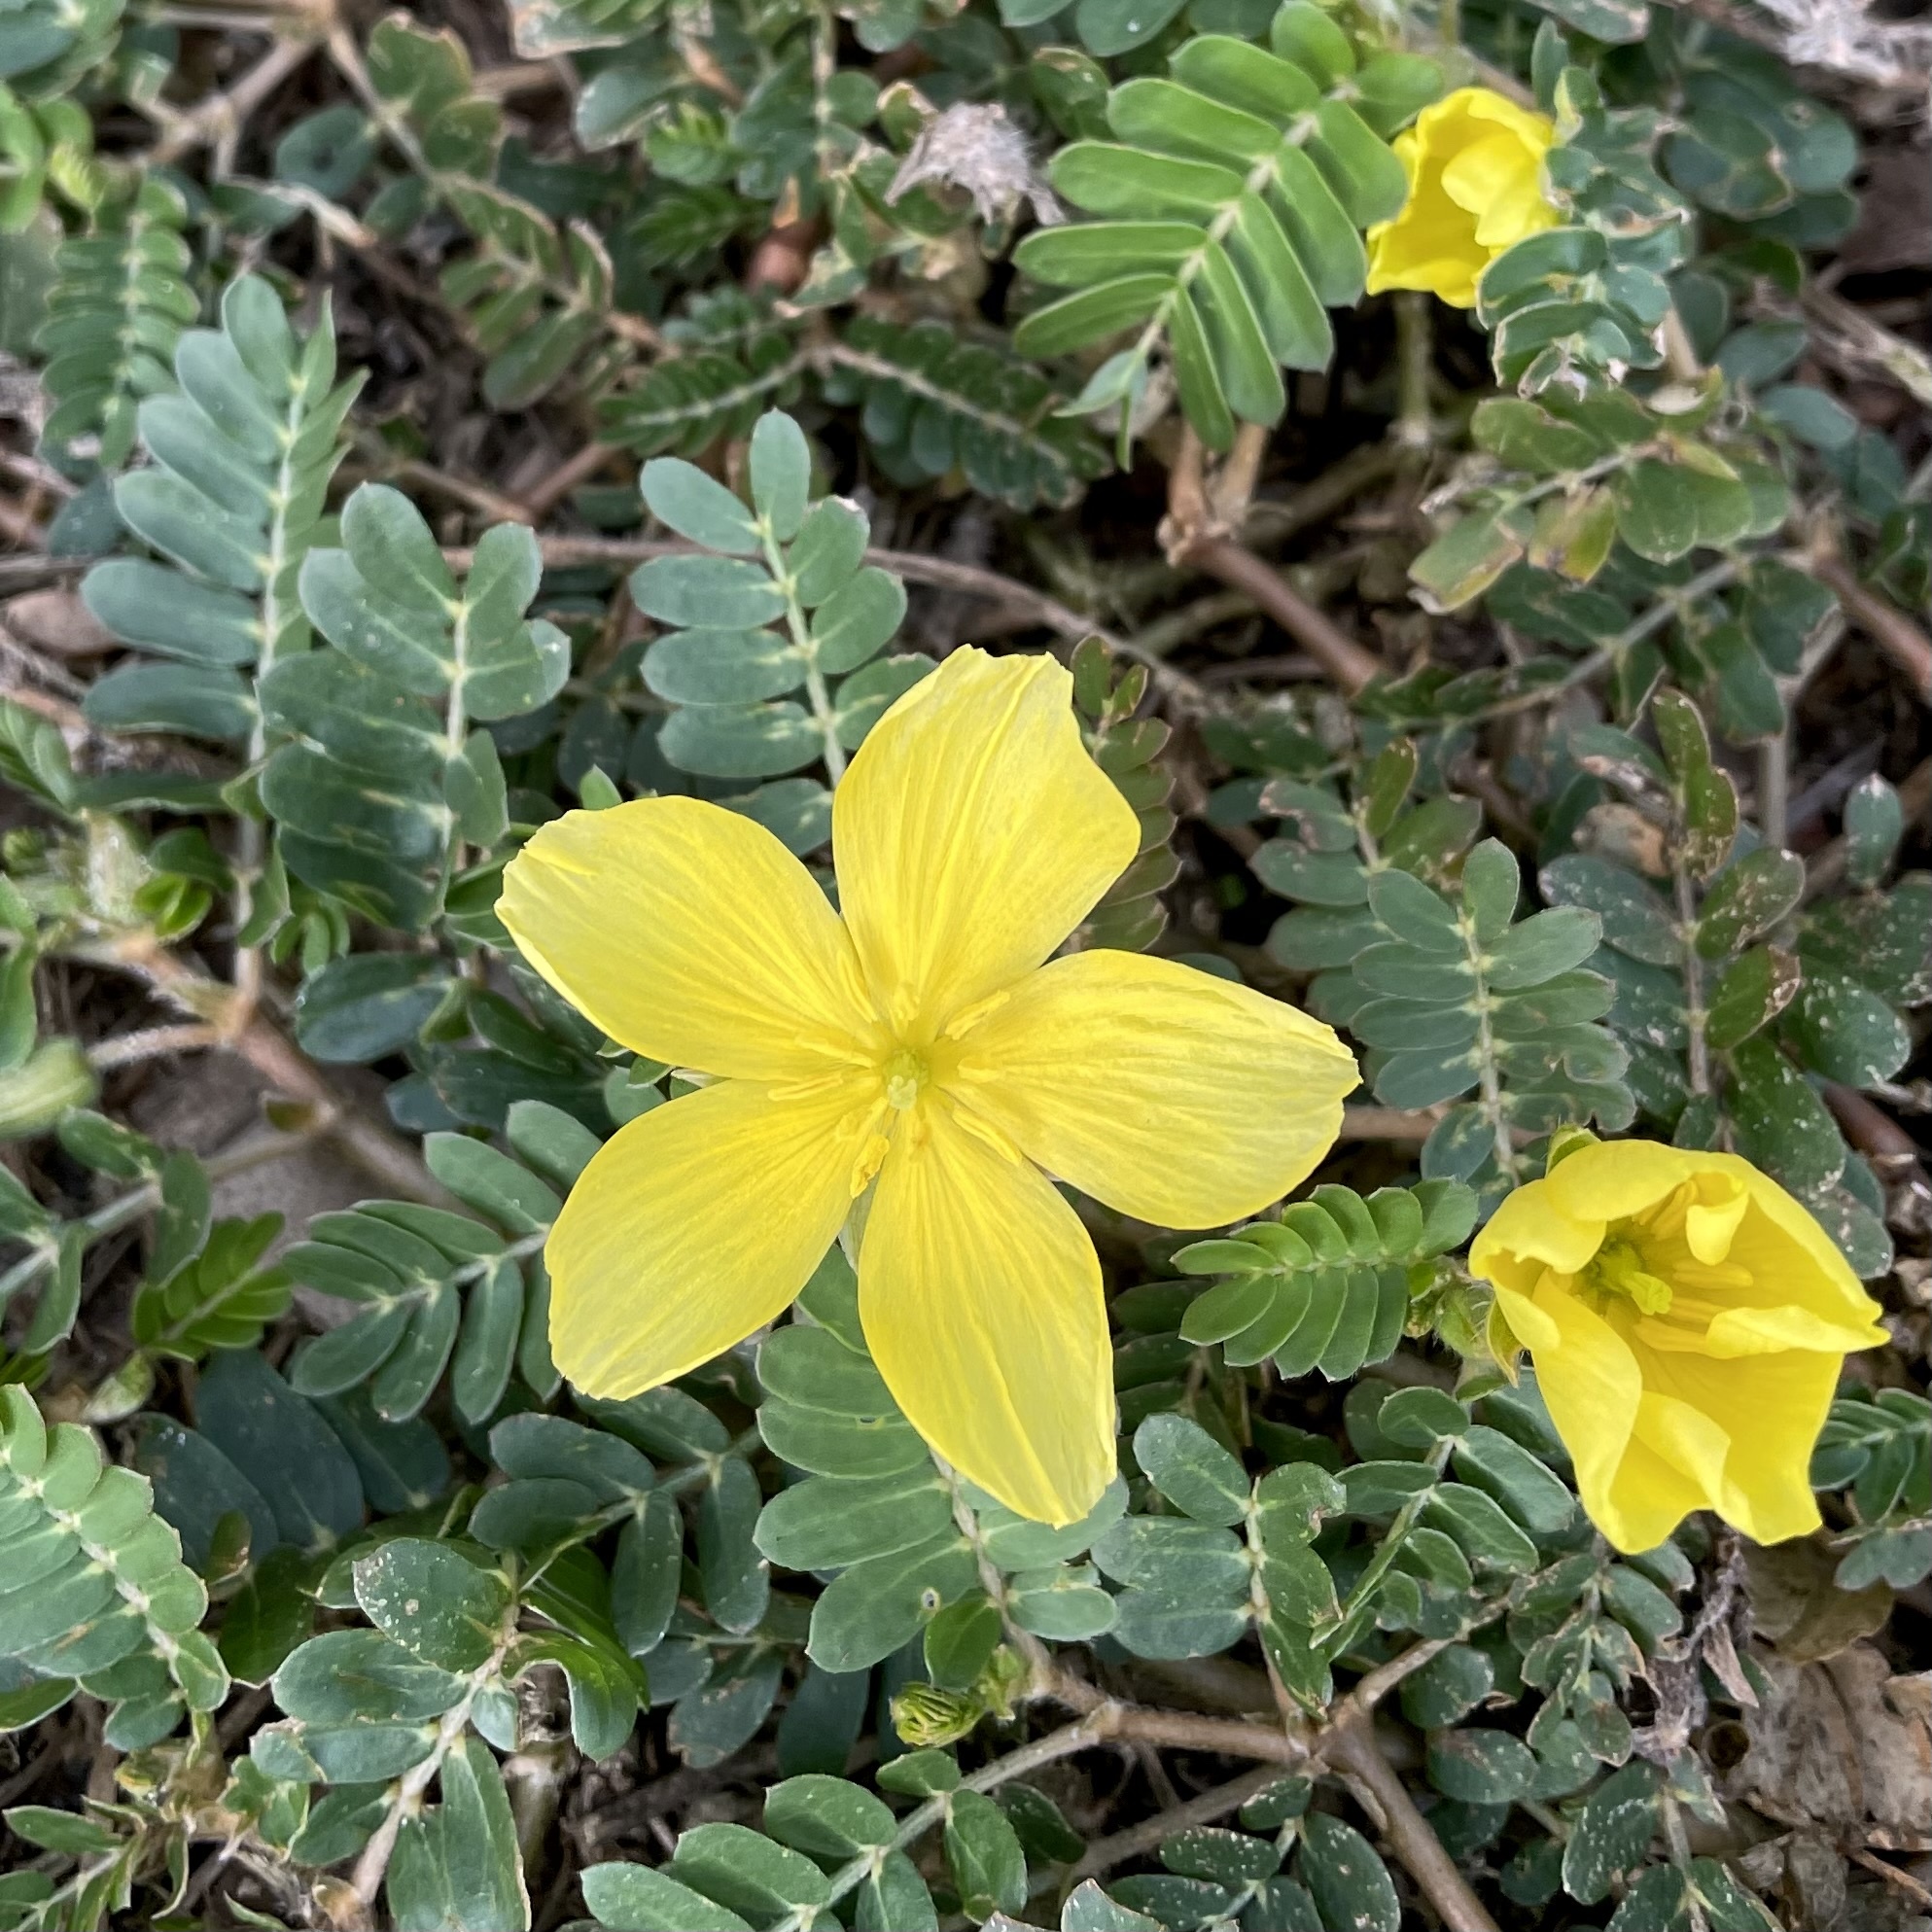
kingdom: Plantae
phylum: Tracheophyta
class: Magnoliopsida
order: Zygophyllales
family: Zygophyllaceae
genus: Tribulus
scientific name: Tribulus cistoides
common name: Jamaican feverplant
